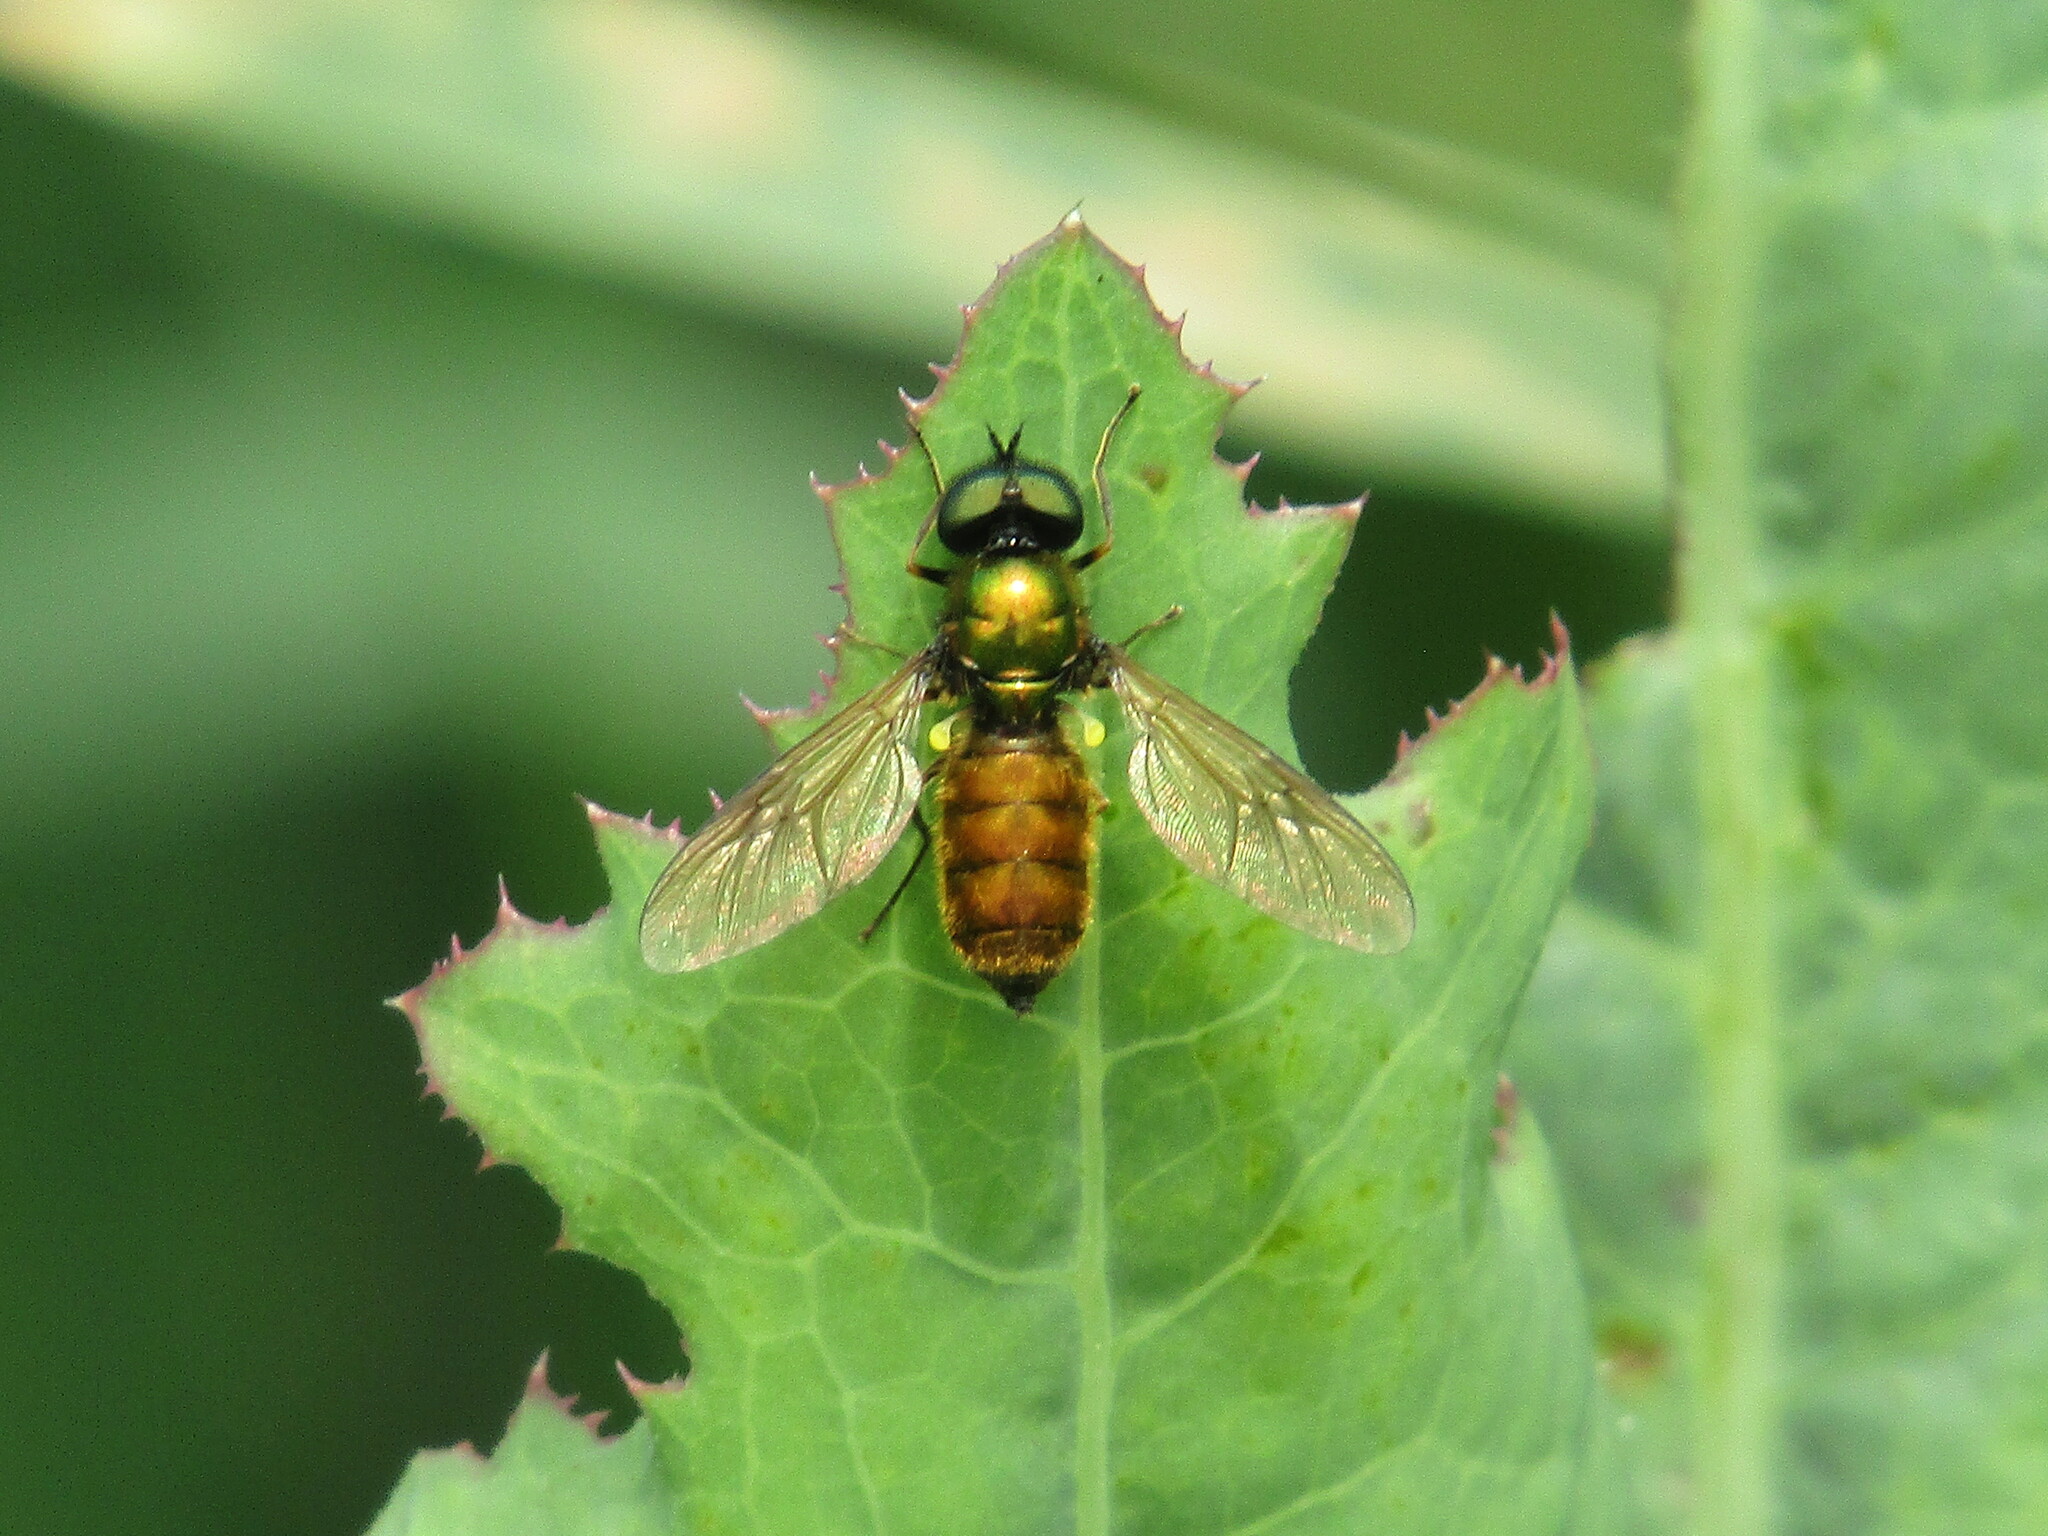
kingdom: Animalia
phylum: Arthropoda
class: Insecta
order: Diptera
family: Stratiomyidae
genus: Chloromyia
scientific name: Chloromyia formosa
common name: Soldier fly
